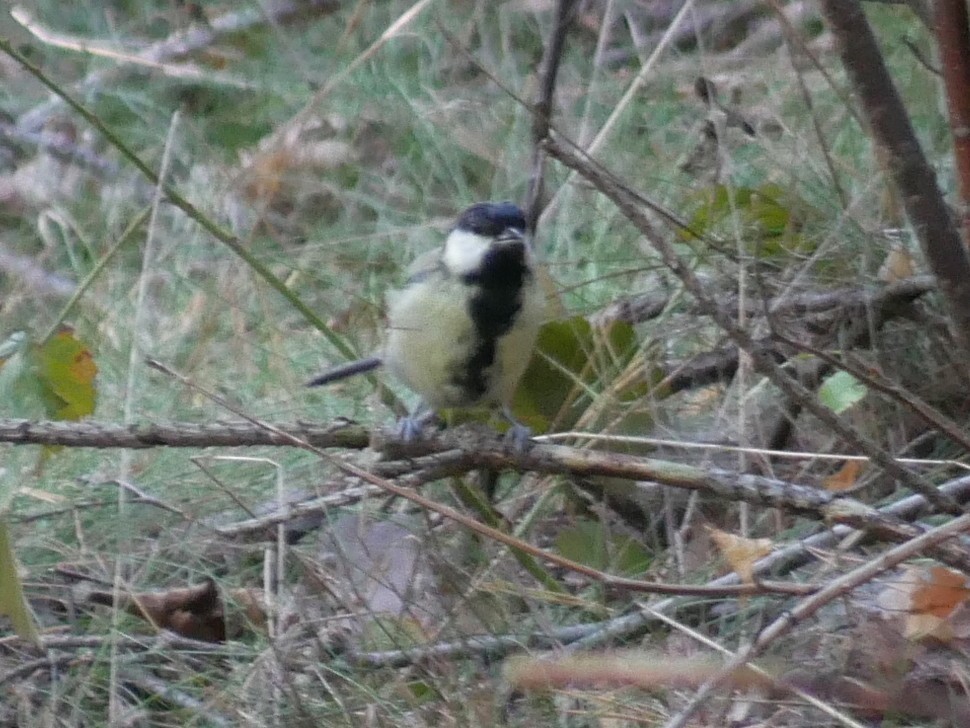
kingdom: Animalia
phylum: Chordata
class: Aves
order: Passeriformes
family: Paridae
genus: Parus
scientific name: Parus major
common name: Great tit
